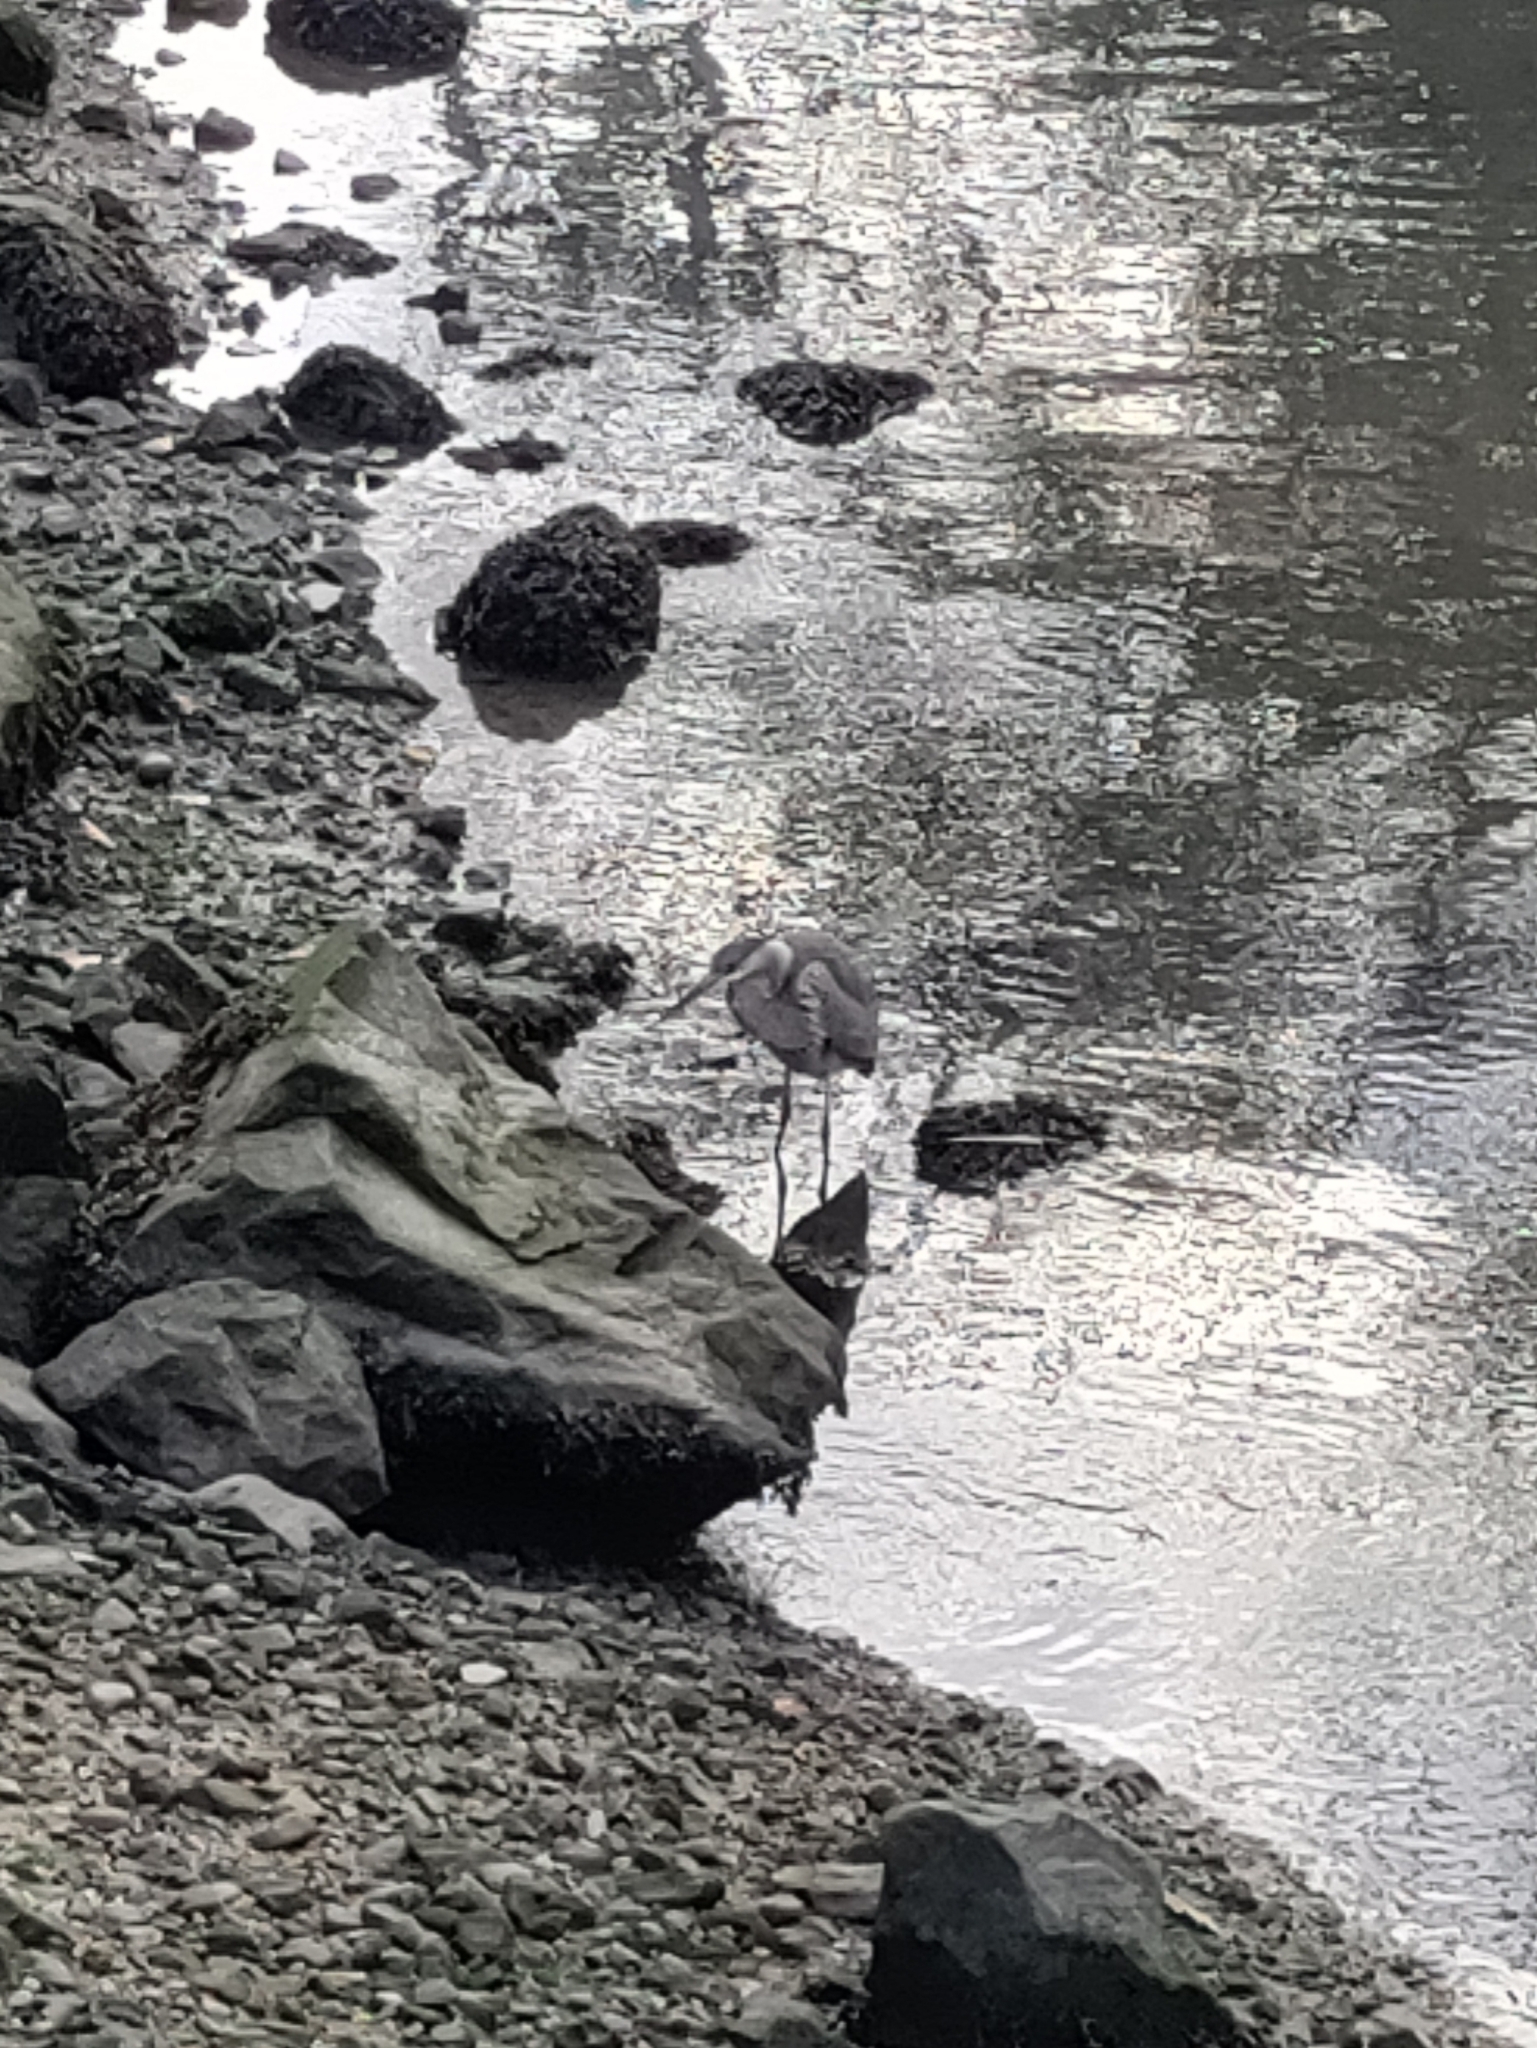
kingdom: Animalia
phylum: Chordata
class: Aves
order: Pelecaniformes
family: Ardeidae
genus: Ardea
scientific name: Ardea herodias
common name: Great blue heron
